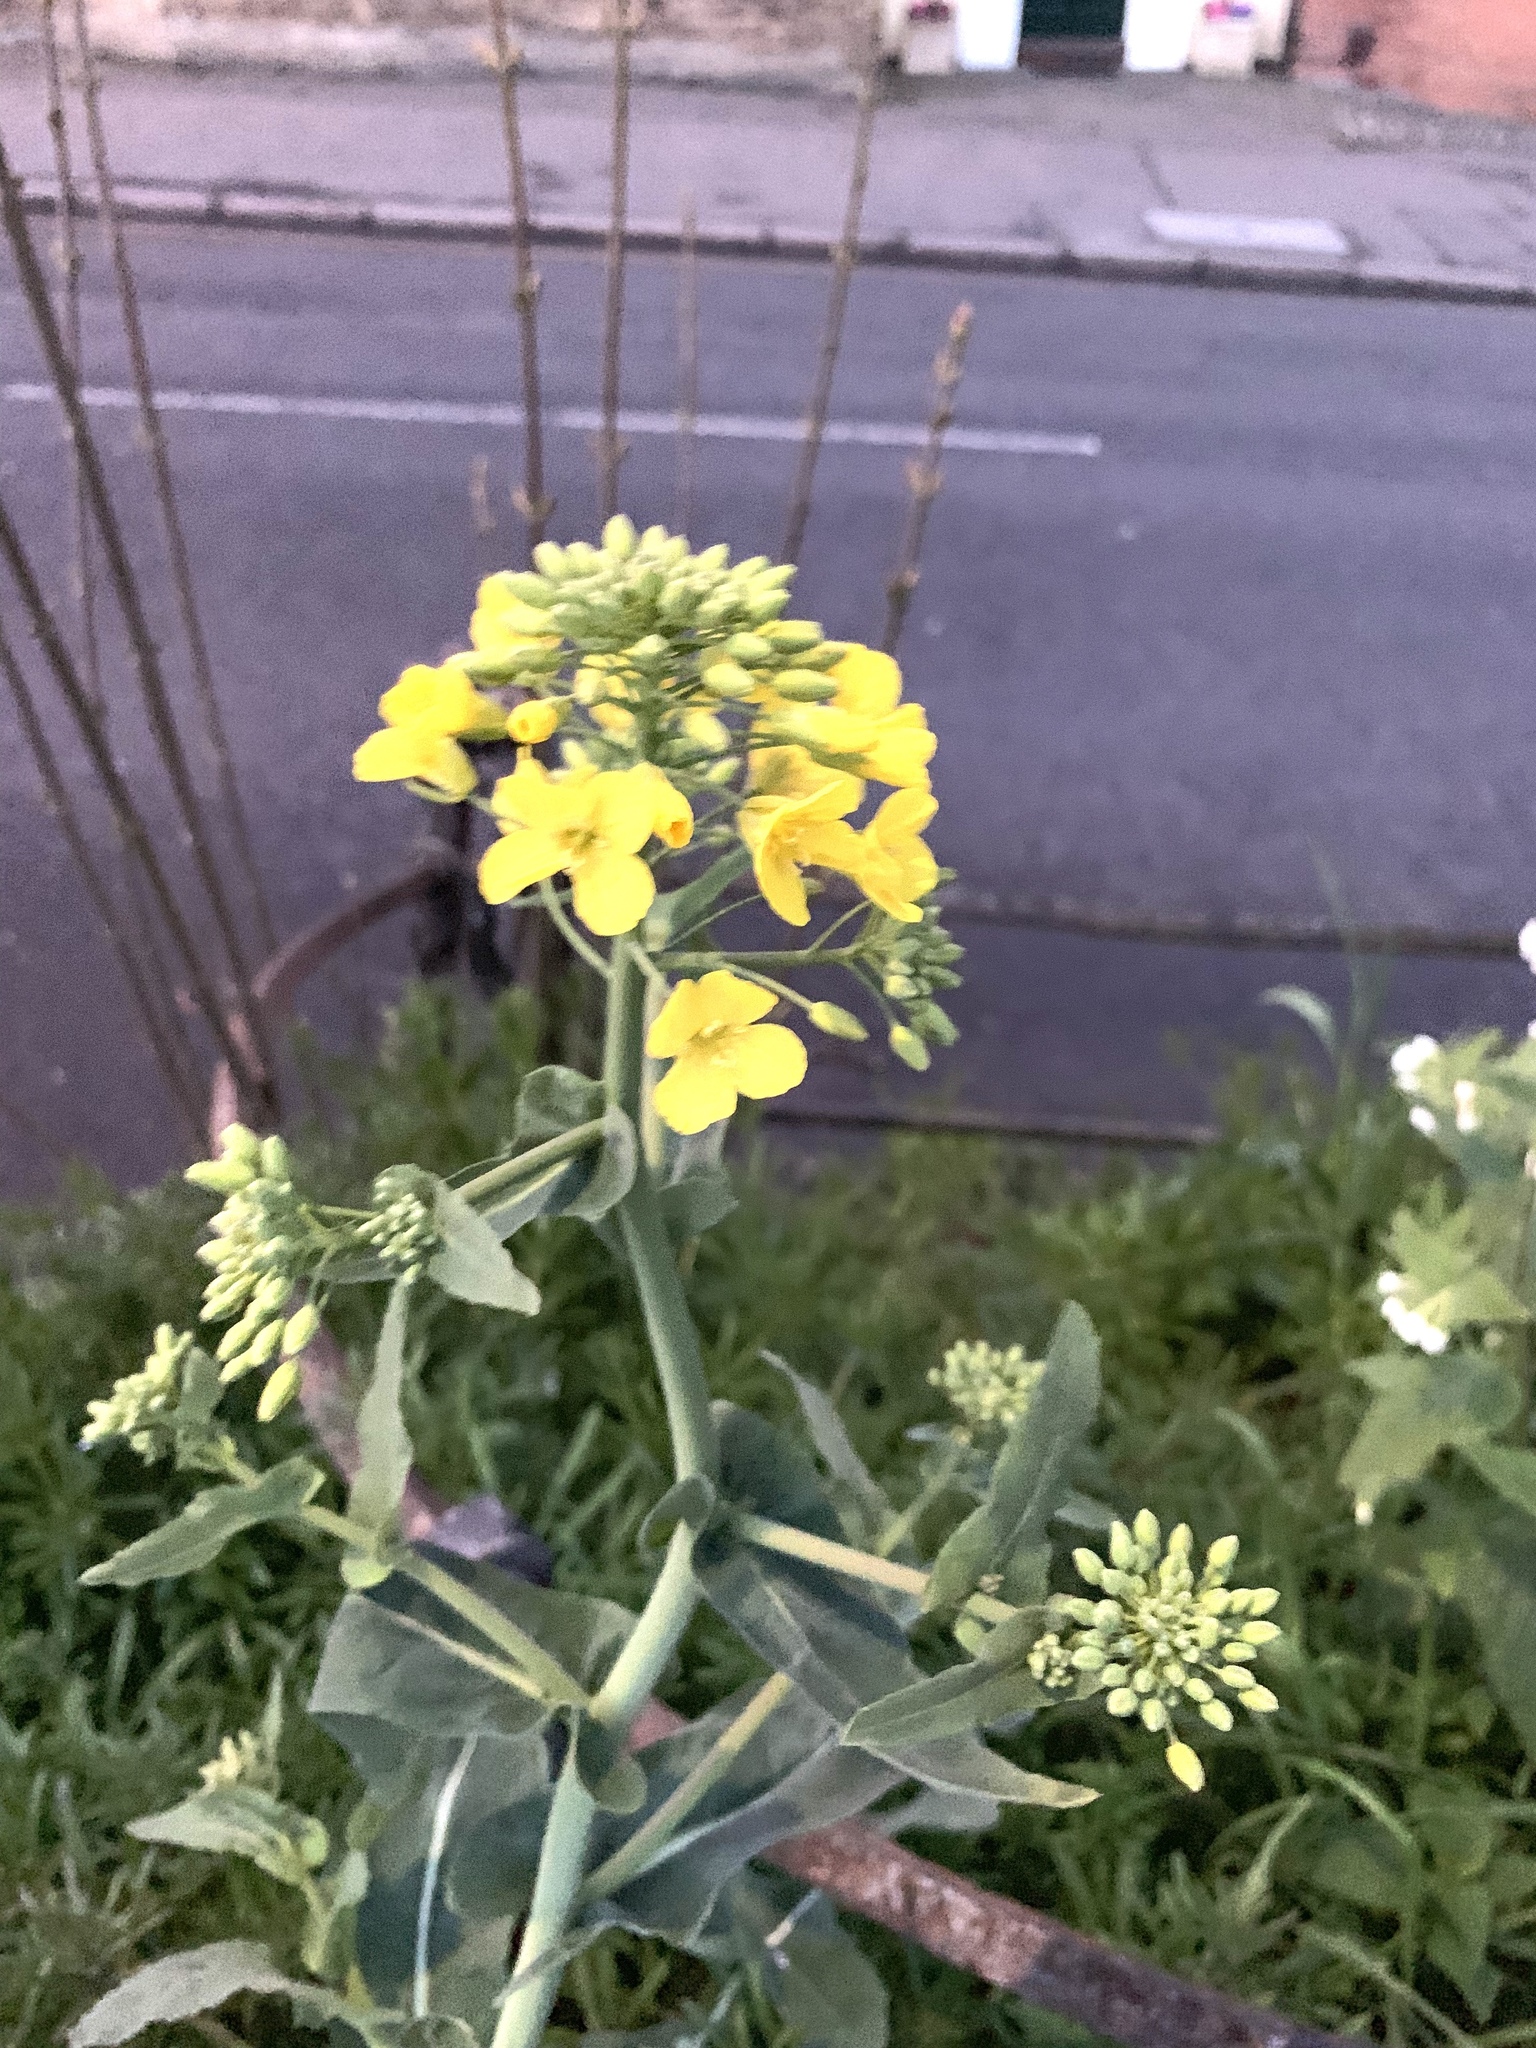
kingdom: Plantae
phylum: Tracheophyta
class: Magnoliopsida
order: Brassicales
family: Brassicaceae
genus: Brassica
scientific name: Brassica napus
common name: Rape
